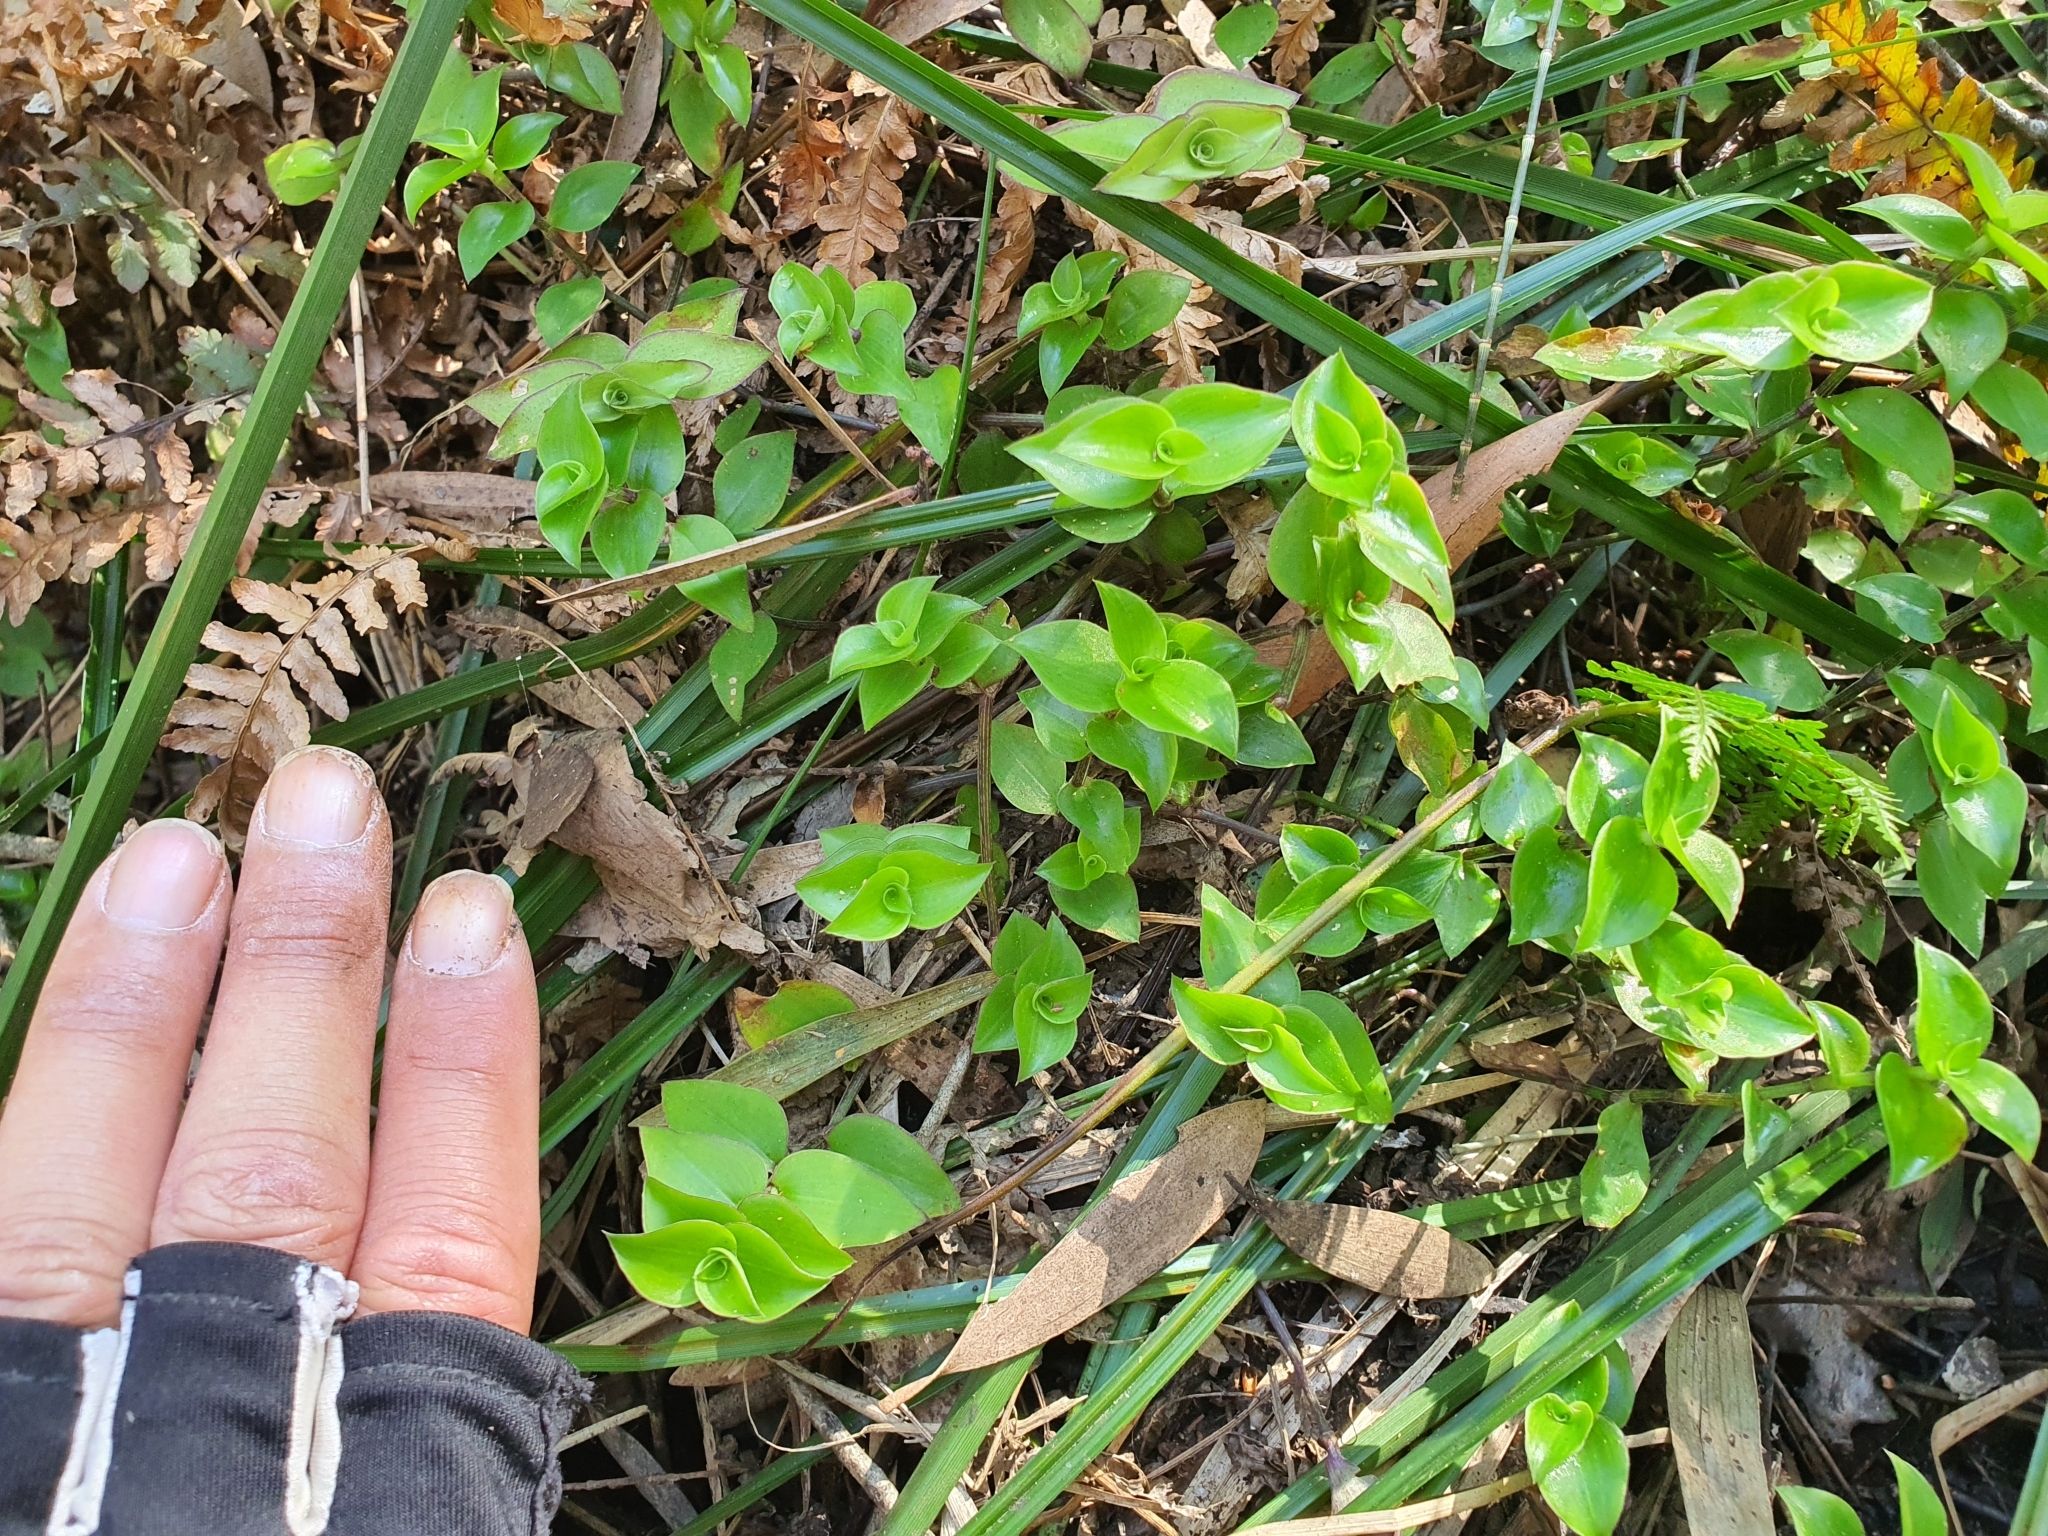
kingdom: Plantae
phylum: Tracheophyta
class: Liliopsida
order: Commelinales
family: Commelinaceae
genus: Callisia
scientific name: Callisia repens
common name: Creeping inchplant
